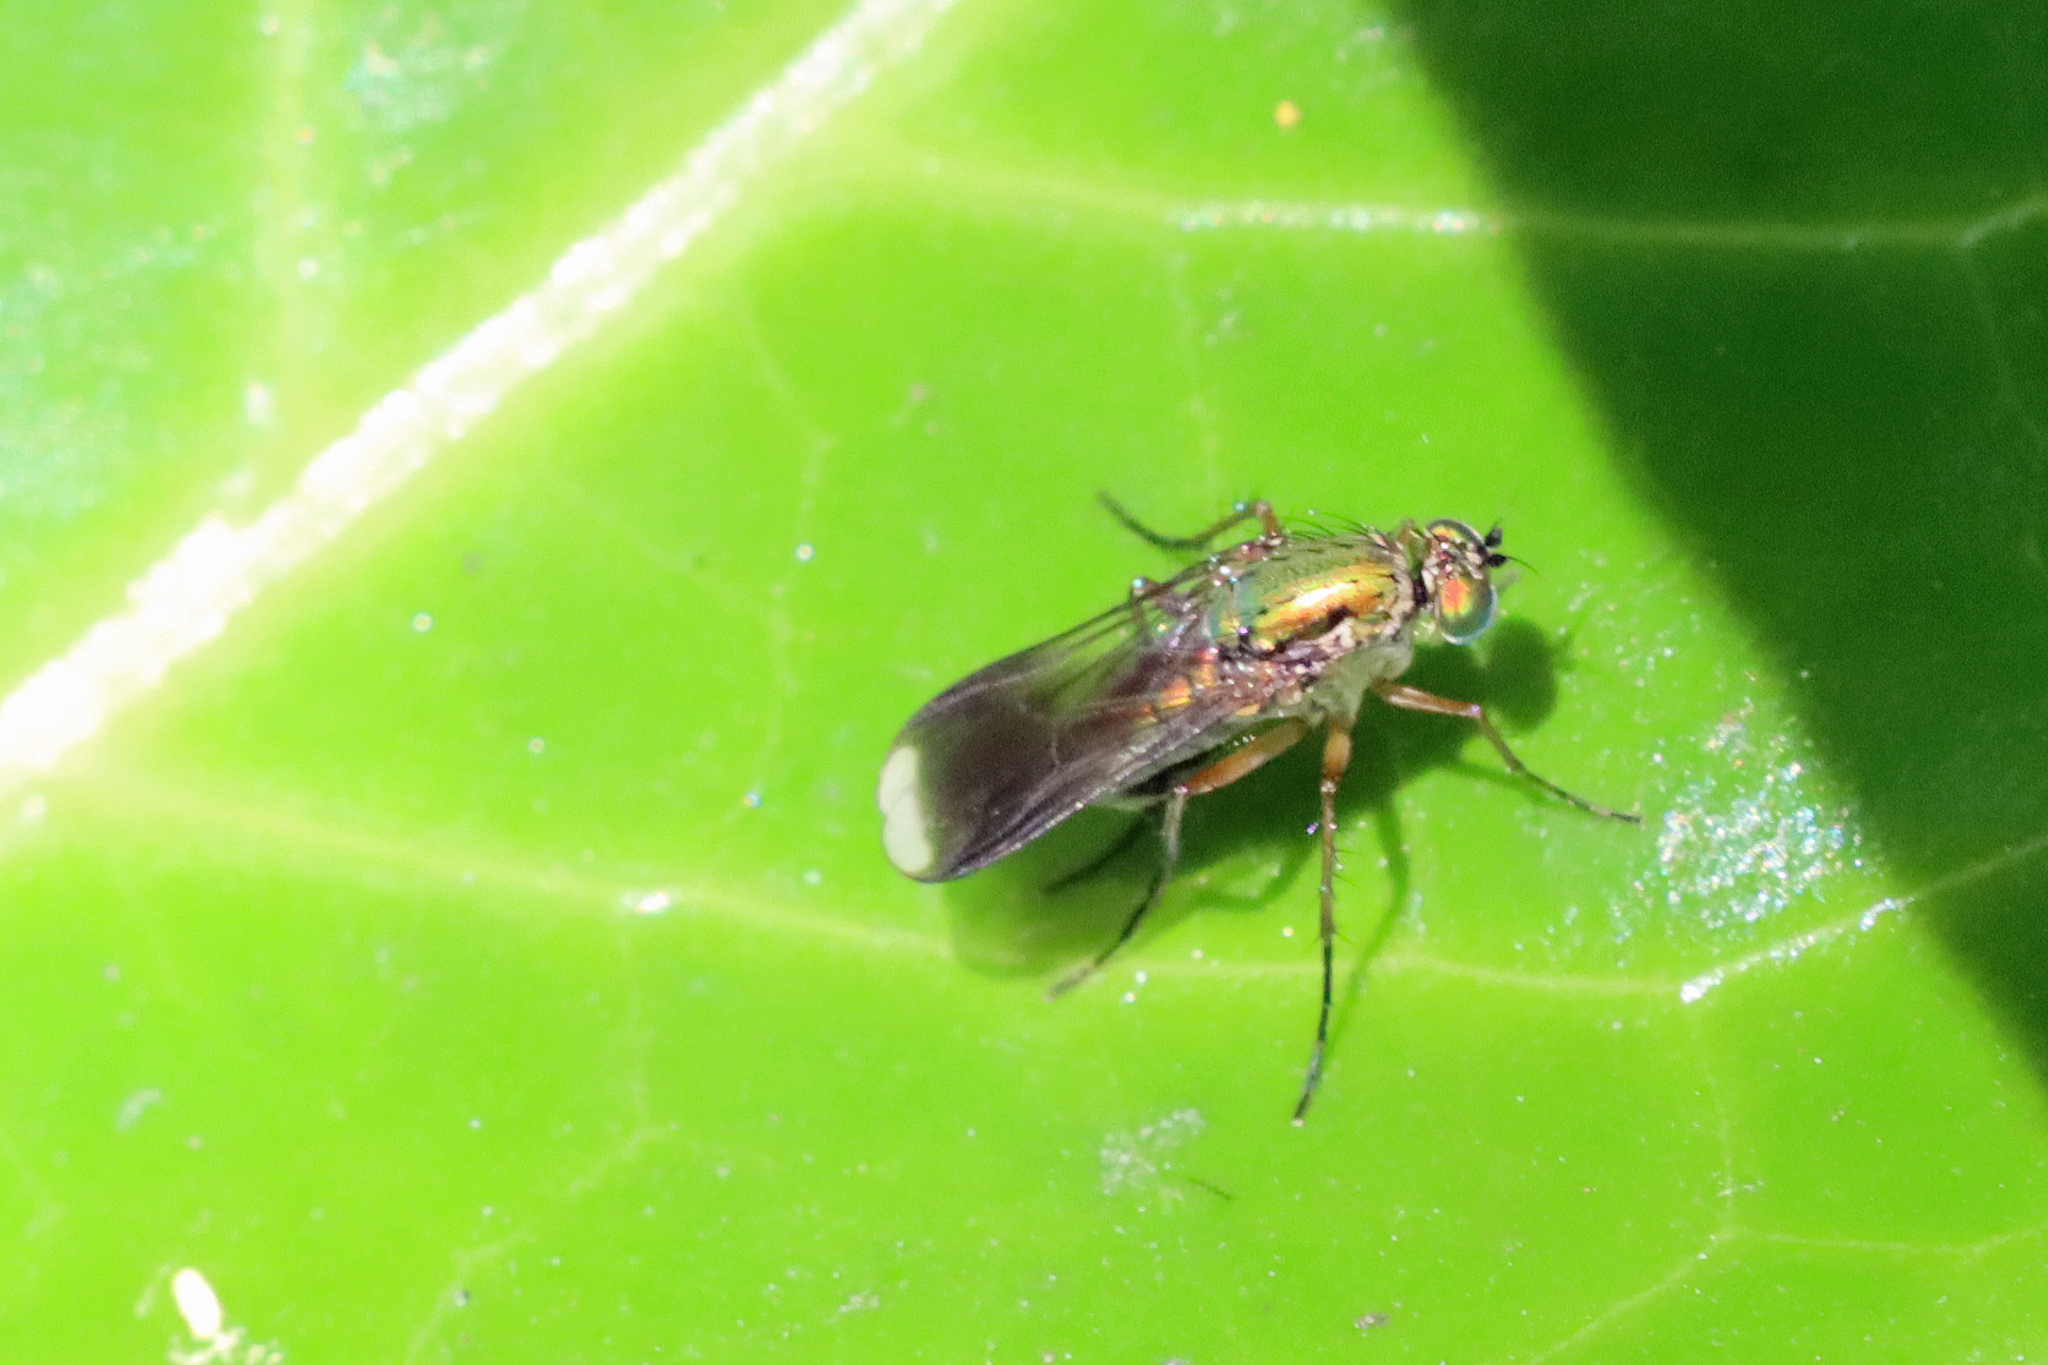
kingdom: Animalia
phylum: Arthropoda
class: Insecta
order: Diptera
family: Dolichopodidae
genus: Poecilobothrus
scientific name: Poecilobothrus nobilitatus
